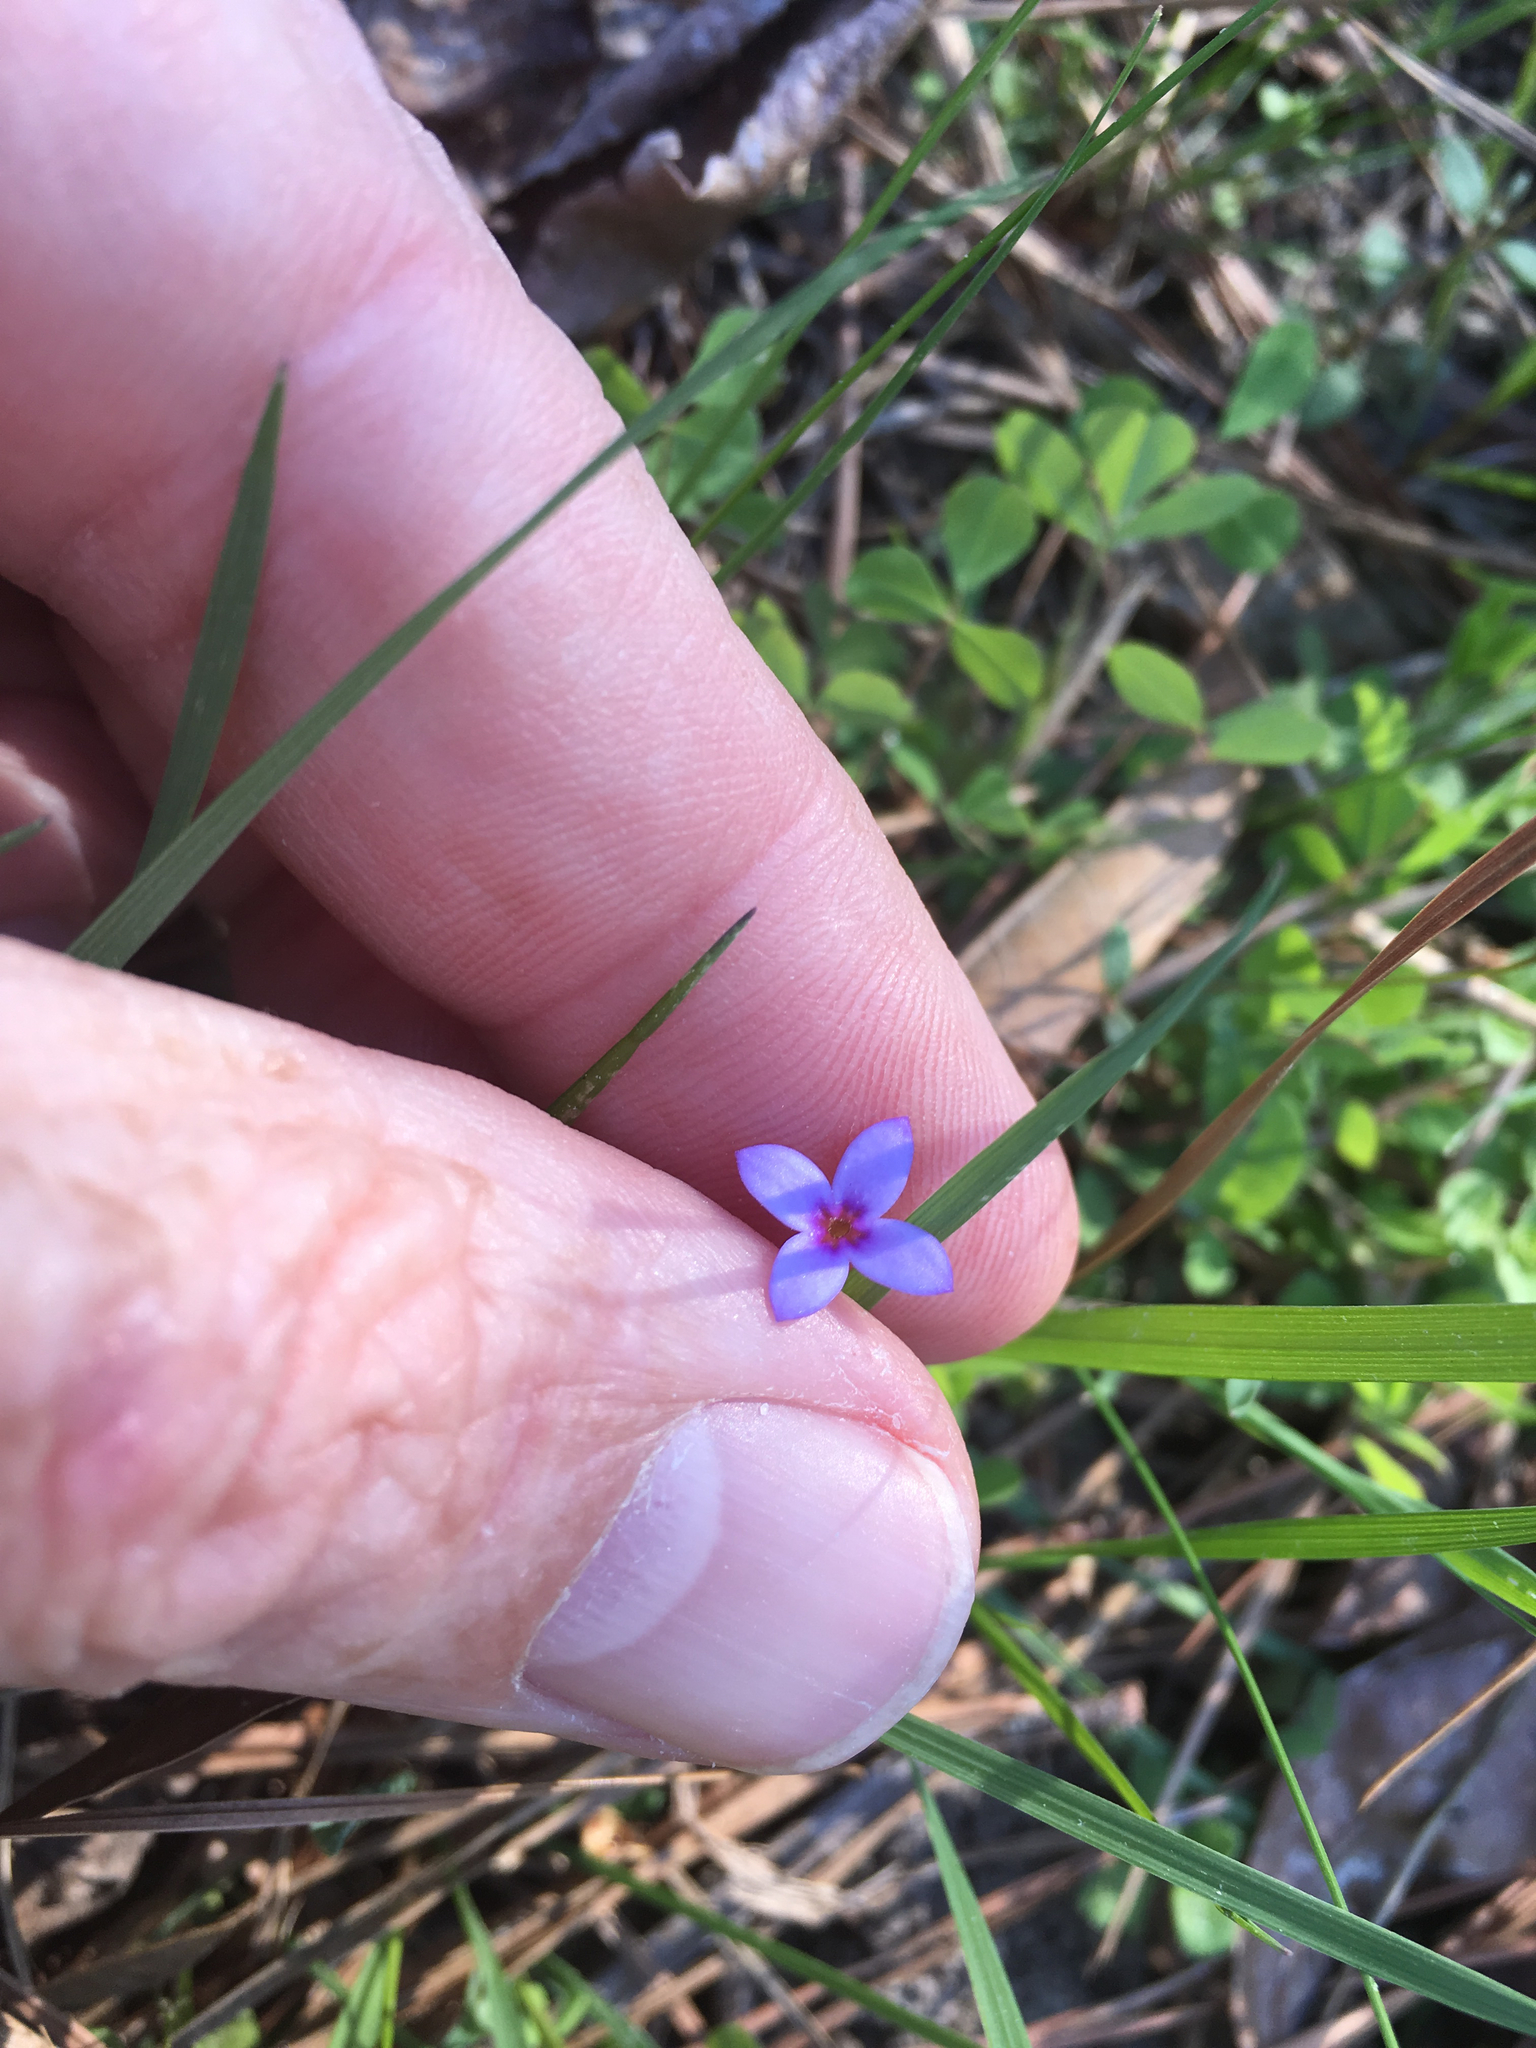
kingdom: Plantae
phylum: Tracheophyta
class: Magnoliopsida
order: Gentianales
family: Rubiaceae
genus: Houstonia
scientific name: Houstonia pusilla
